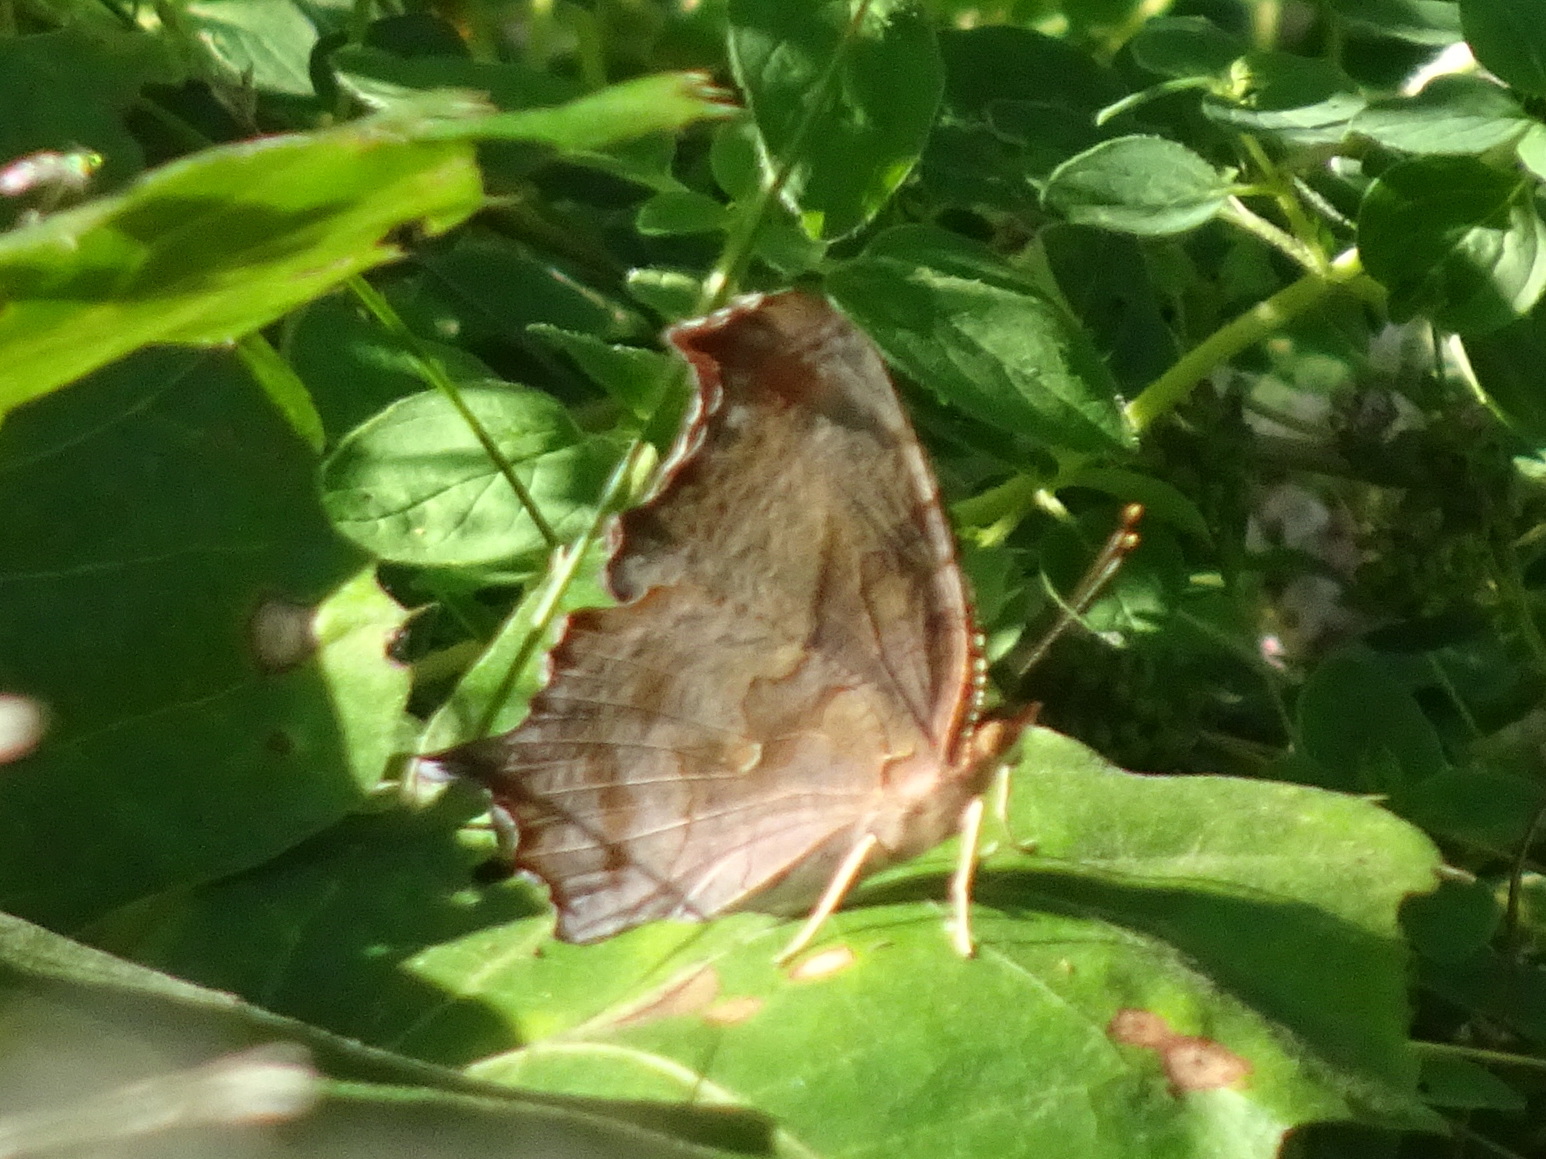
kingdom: Animalia
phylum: Arthropoda
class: Insecta
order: Lepidoptera
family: Nymphalidae
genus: Polygonia
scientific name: Polygonia interrogationis
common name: Question mark
